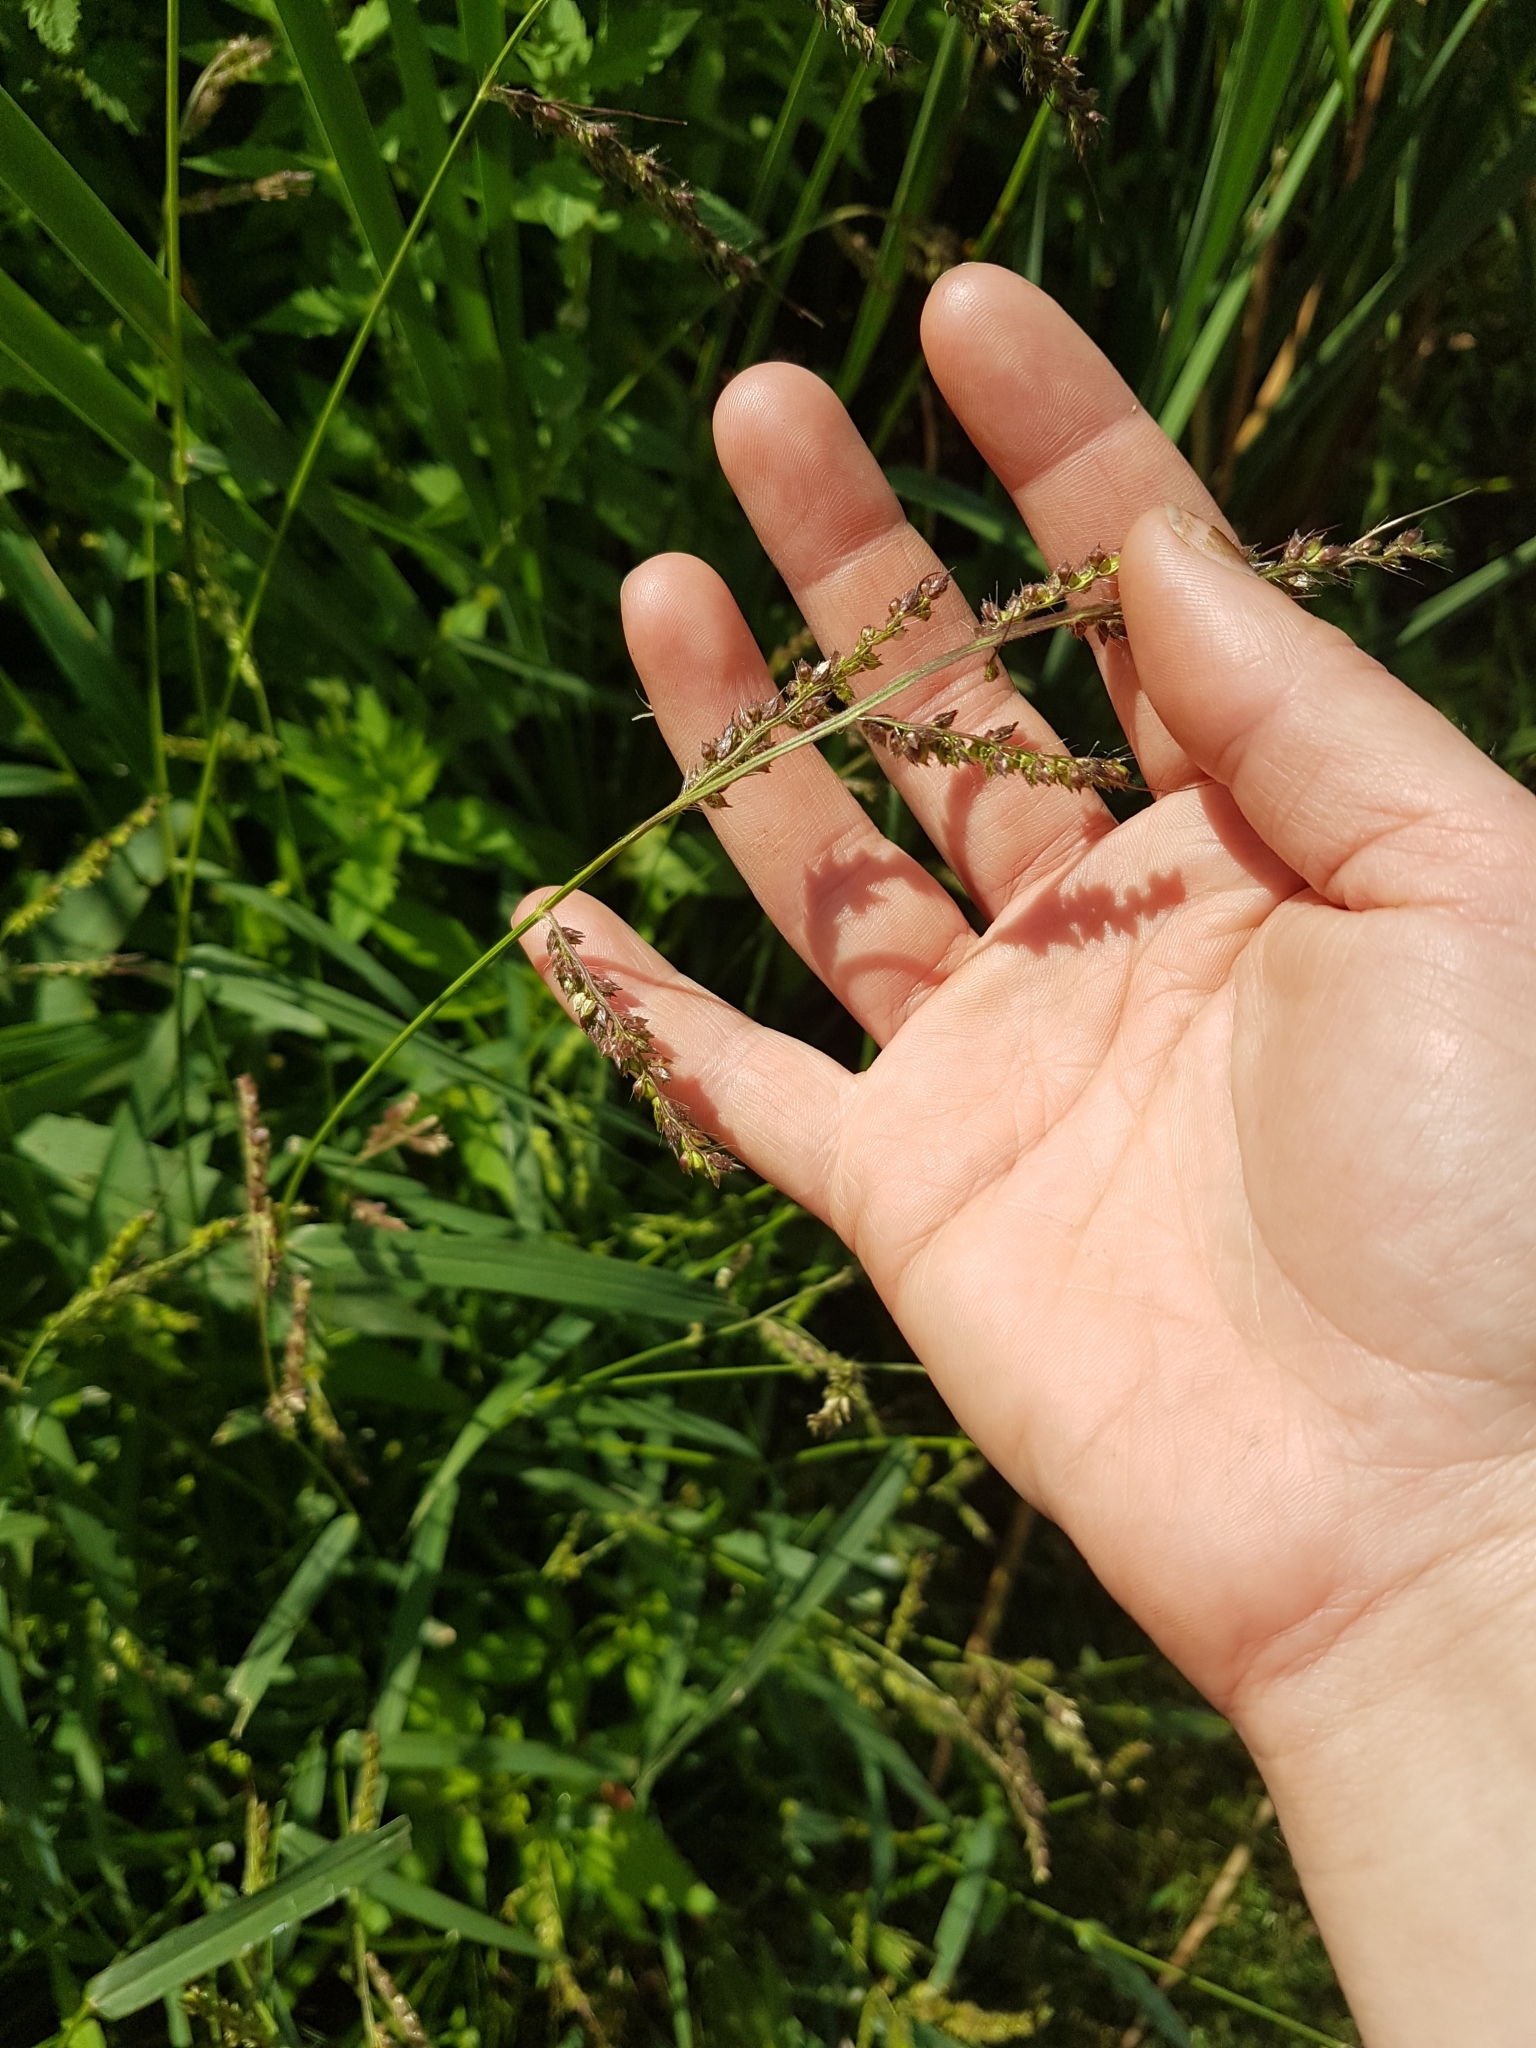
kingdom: Plantae
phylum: Tracheophyta
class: Liliopsida
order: Poales
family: Poaceae
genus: Echinochloa
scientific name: Echinochloa crus-galli
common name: Cockspur
